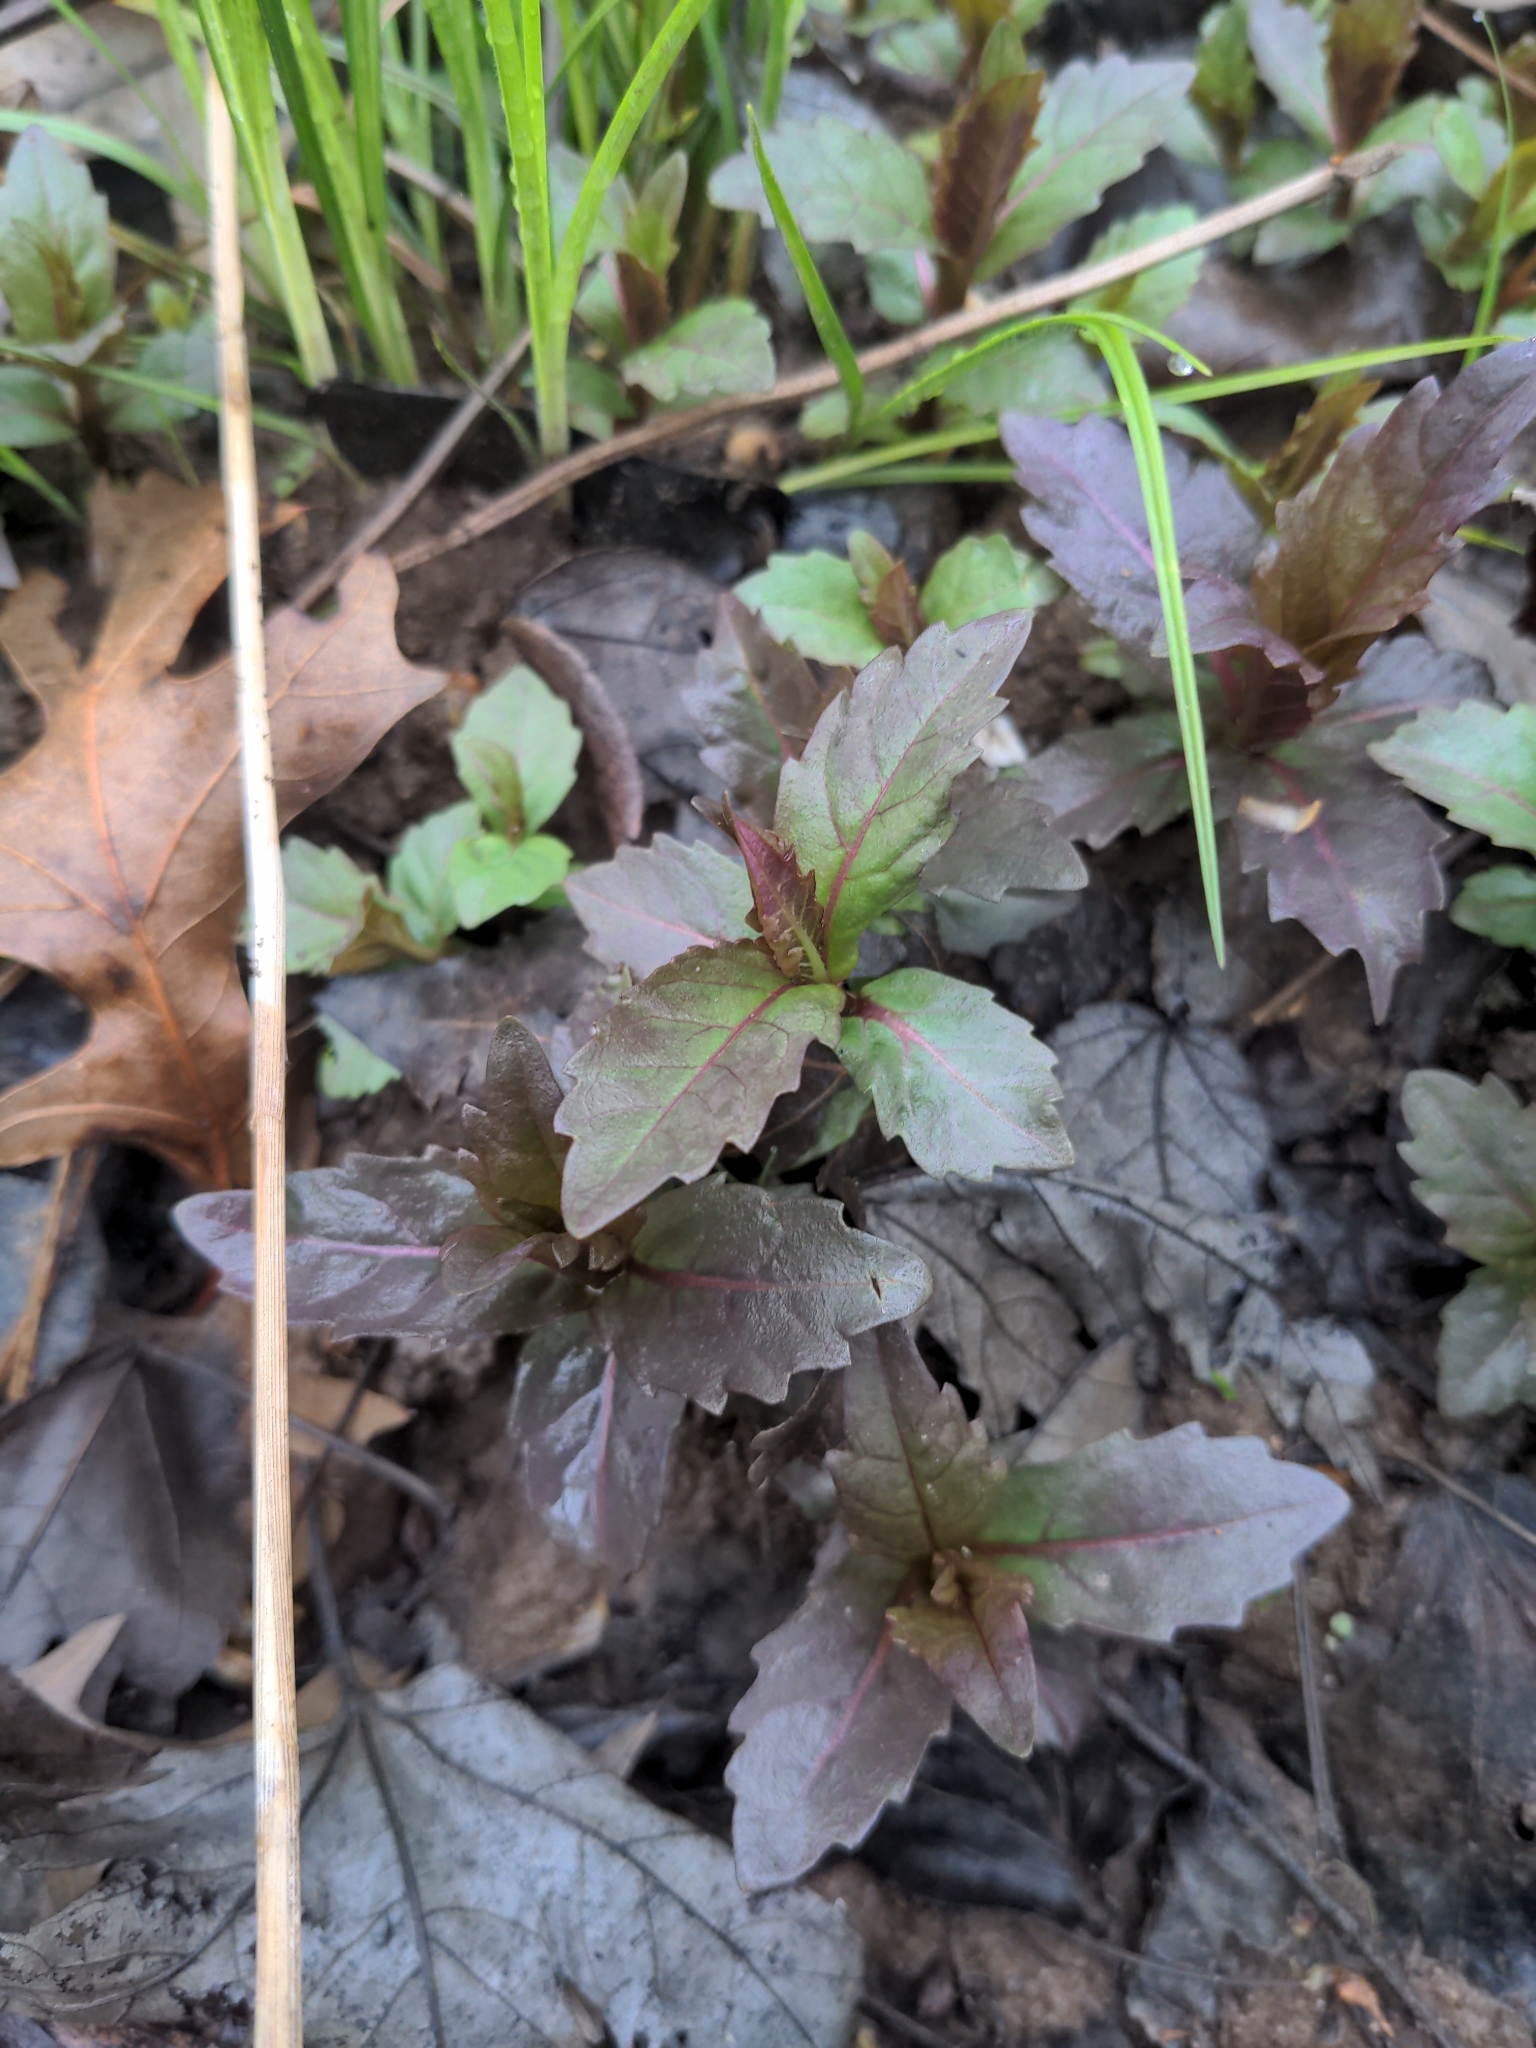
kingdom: Plantae
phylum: Tracheophyta
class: Magnoliopsida
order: Lamiales
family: Lamiaceae
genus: Lycopus
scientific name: Lycopus uniflorus
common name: Northern bugleweed
